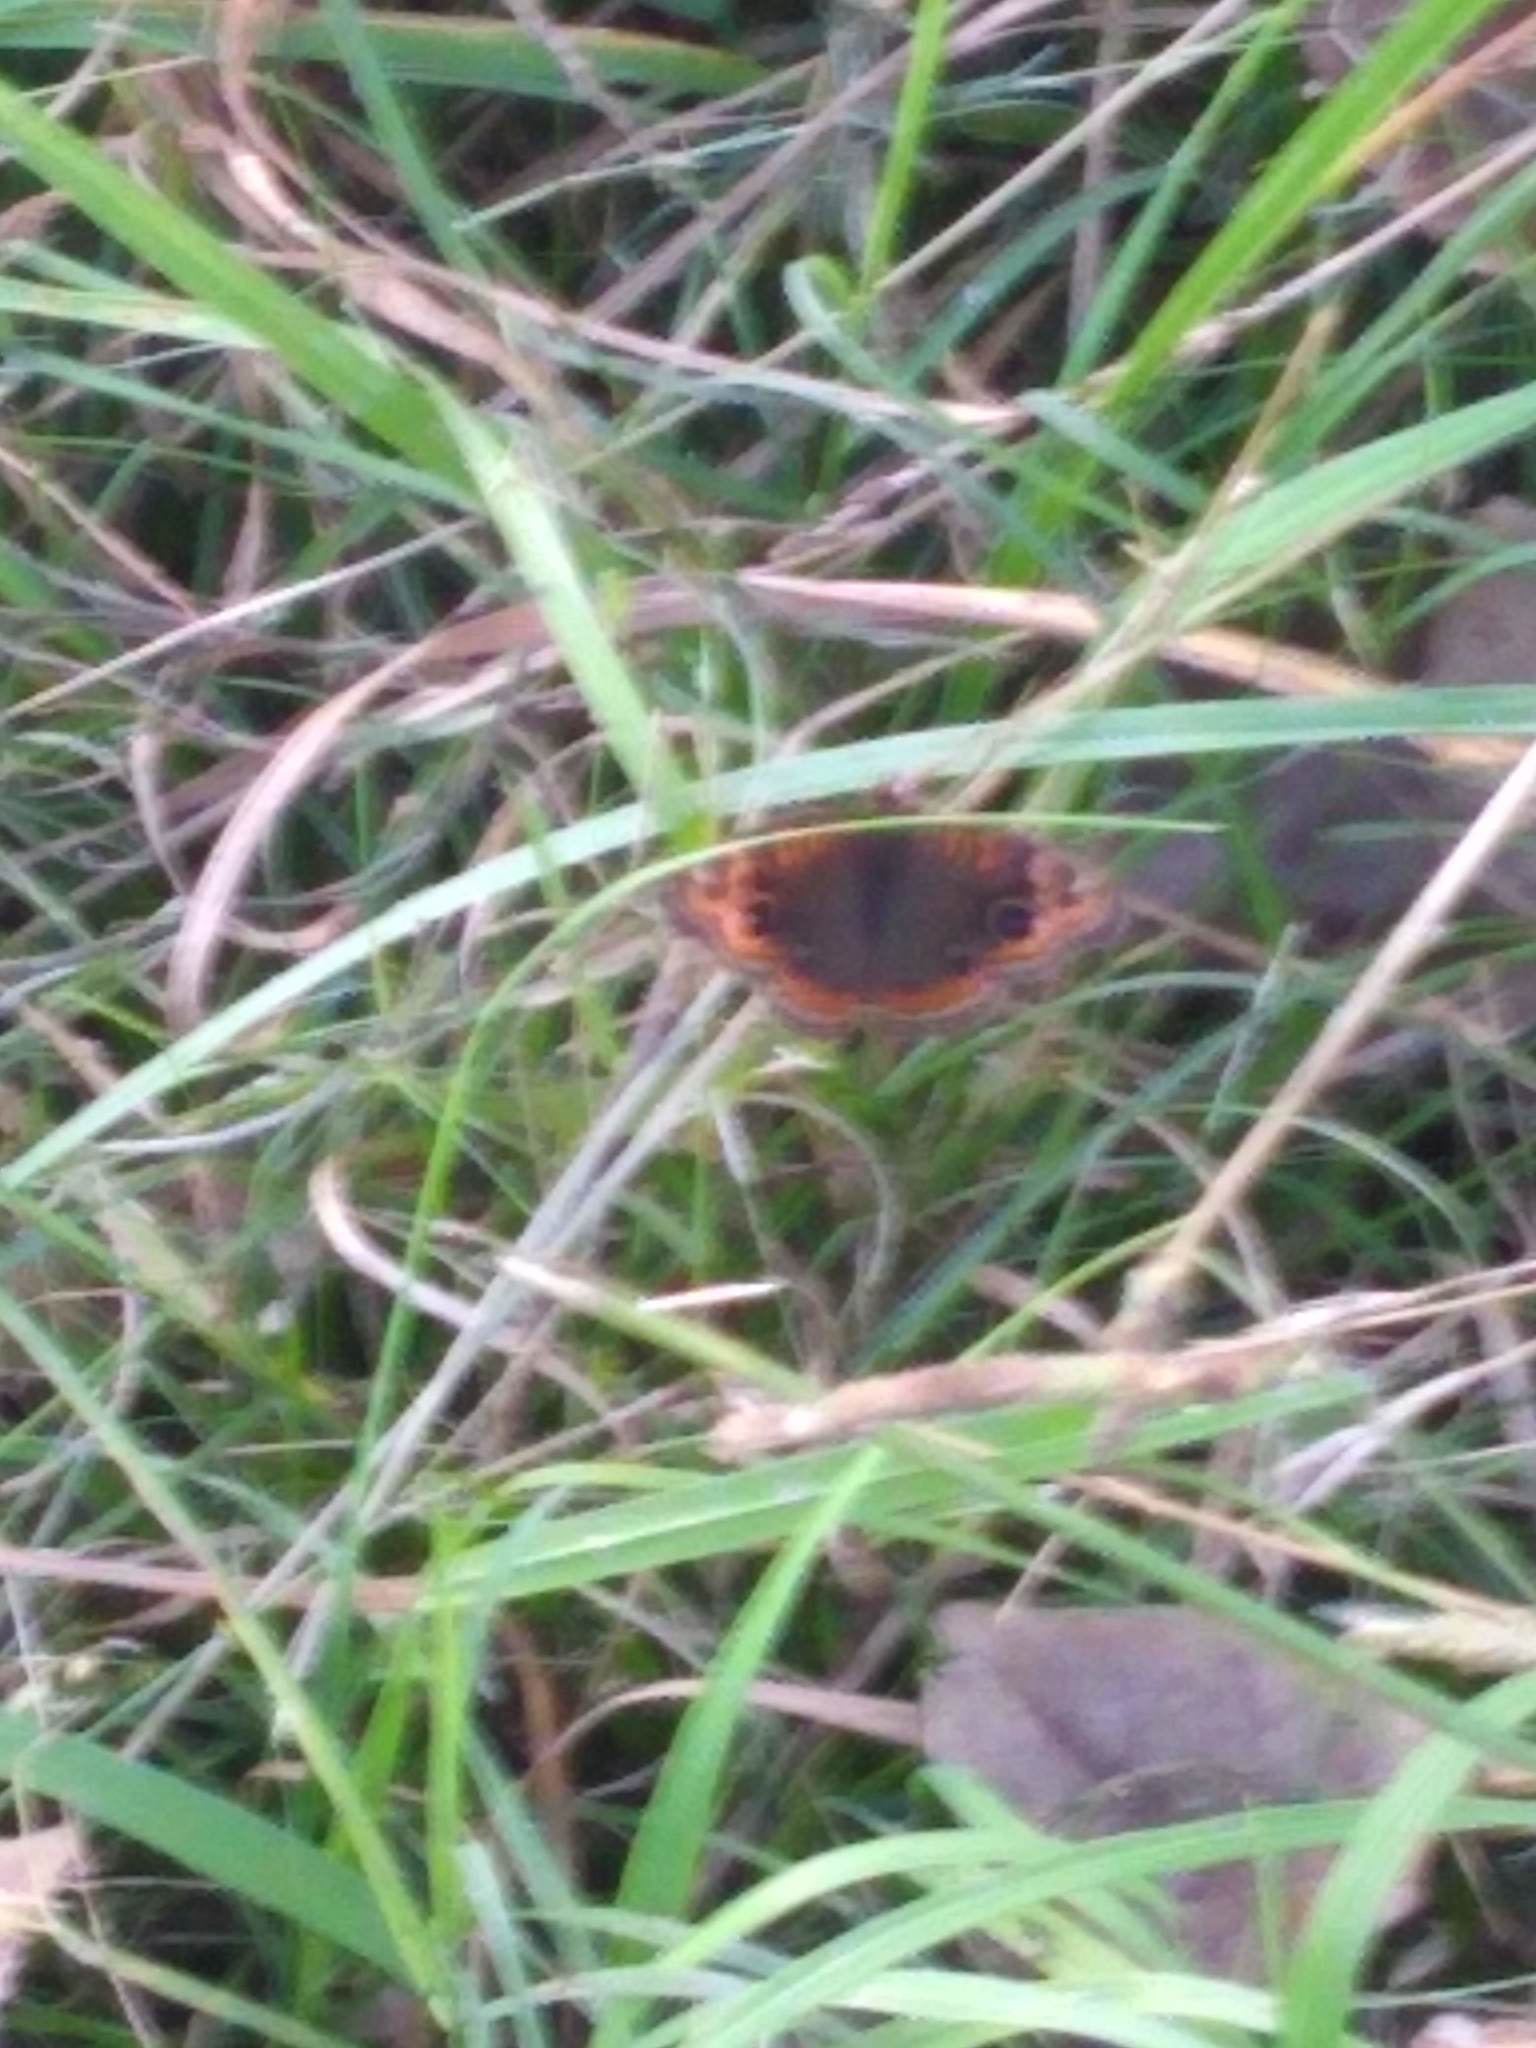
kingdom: Animalia
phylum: Arthropoda
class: Insecta
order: Lepidoptera
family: Nymphalidae
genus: Junonia
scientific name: Junonia lavinia
